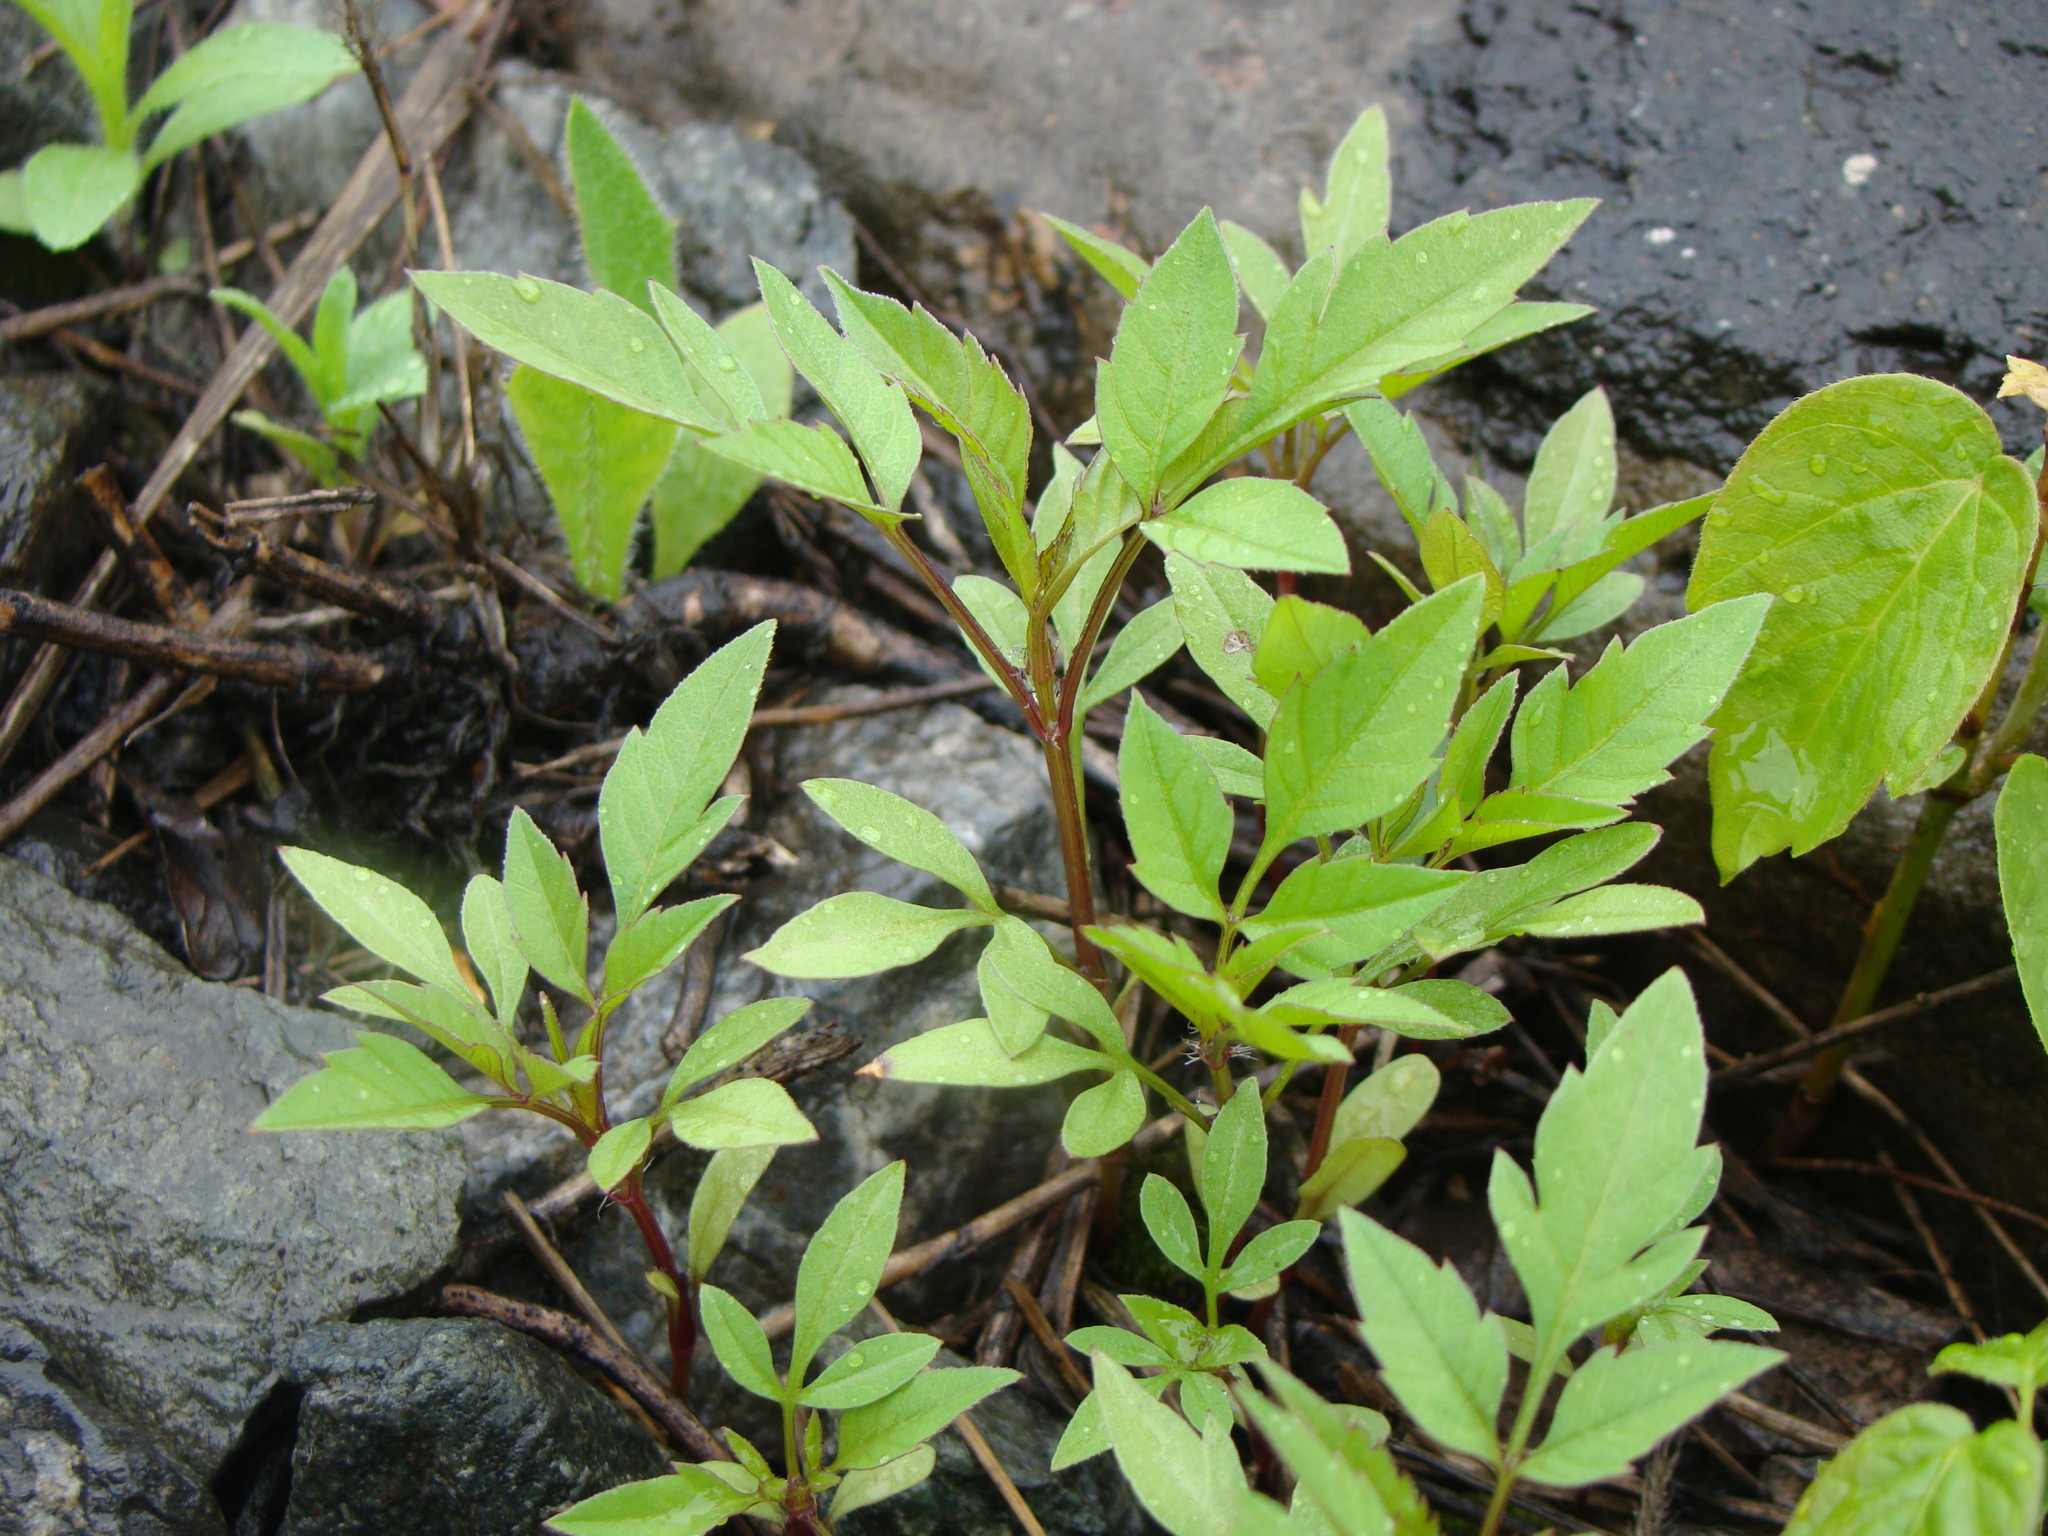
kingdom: Plantae
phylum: Tracheophyta
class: Magnoliopsida
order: Asterales
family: Asteraceae
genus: Bidens
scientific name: Bidens frondosa
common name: Beggarticks
